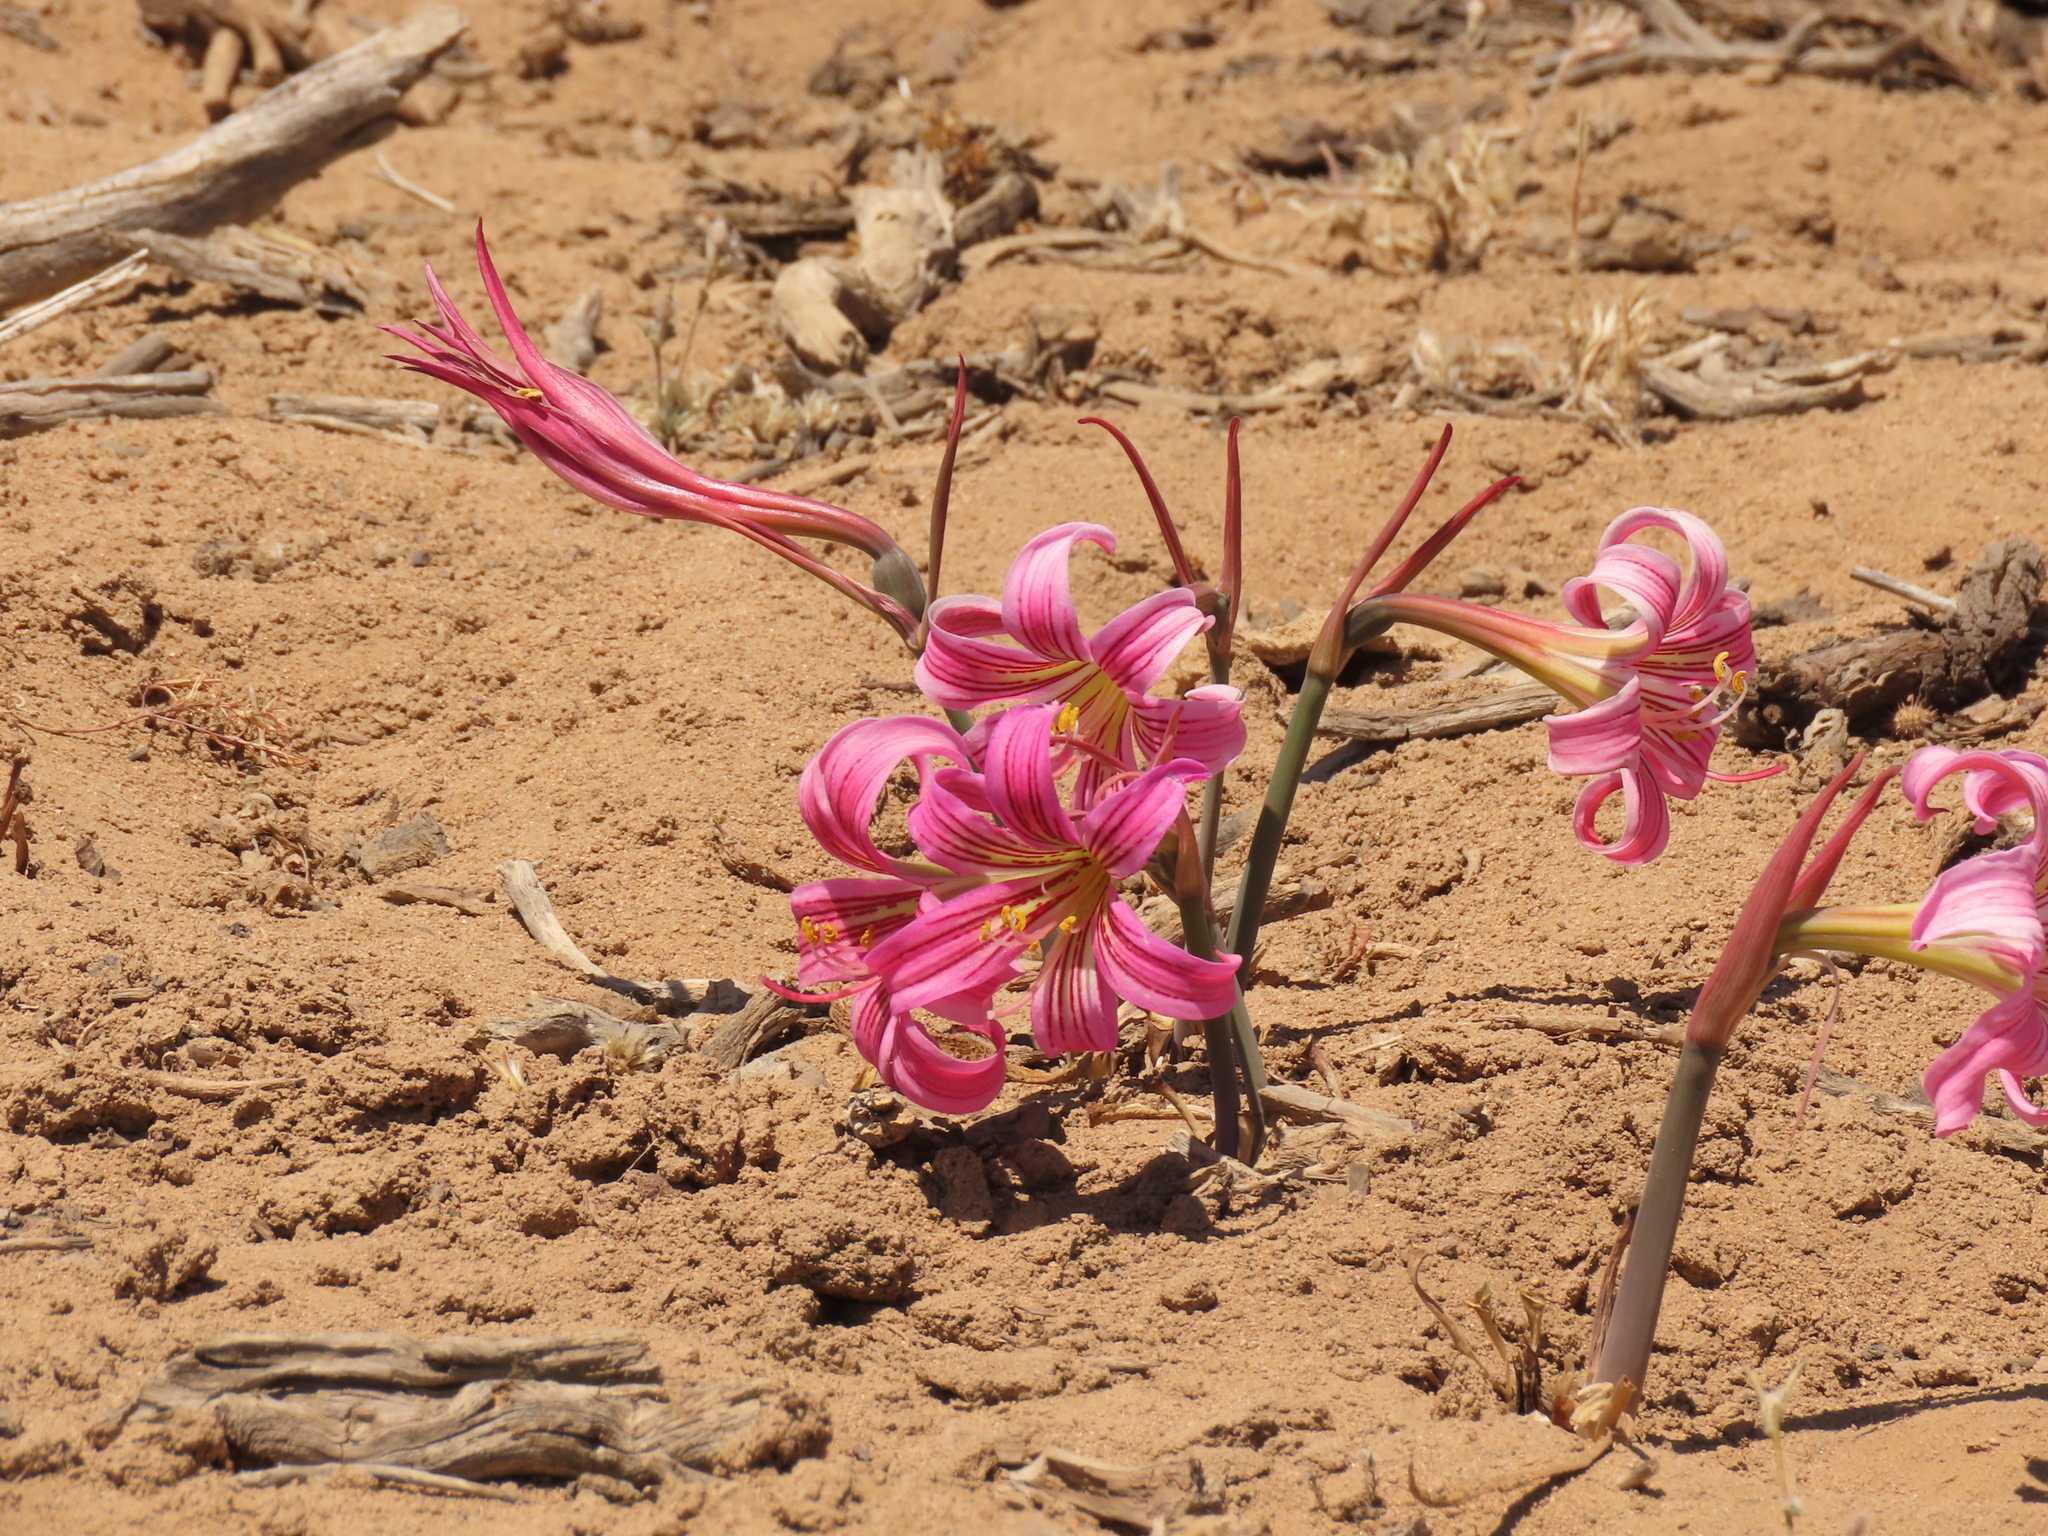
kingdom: Plantae
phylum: Tracheophyta
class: Liliopsida
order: Asparagales
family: Amaryllidaceae
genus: Rhodolirium
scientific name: Rhodolirium montanum
